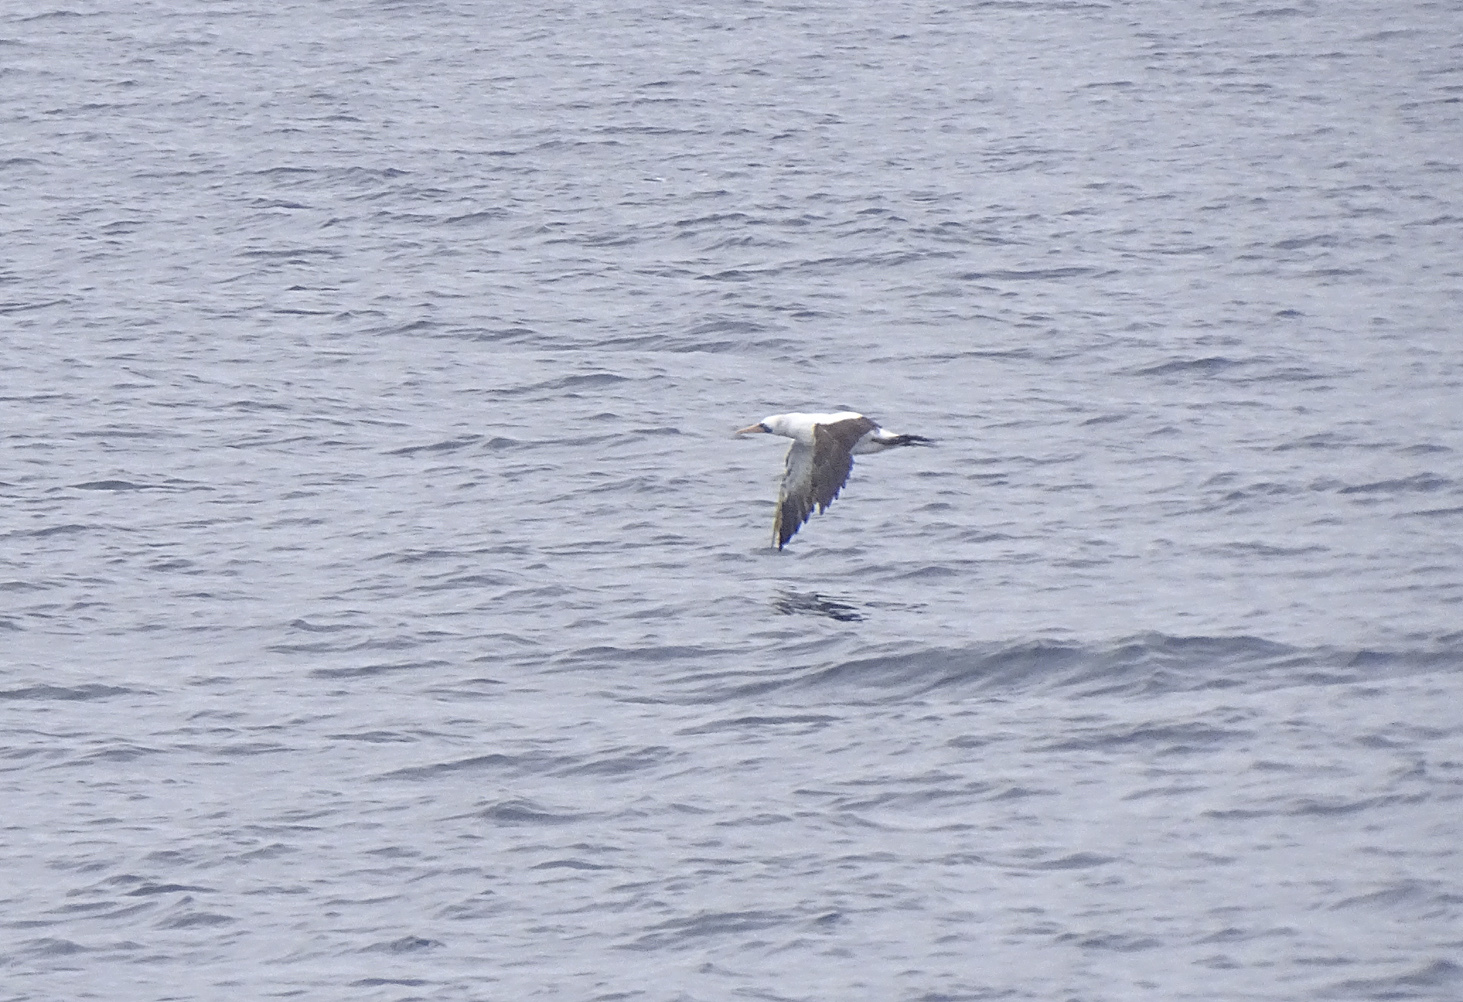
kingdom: Animalia
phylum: Chordata
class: Aves
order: Suliformes
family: Sulidae
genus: Sula
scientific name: Sula granti
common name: Nazca booby
